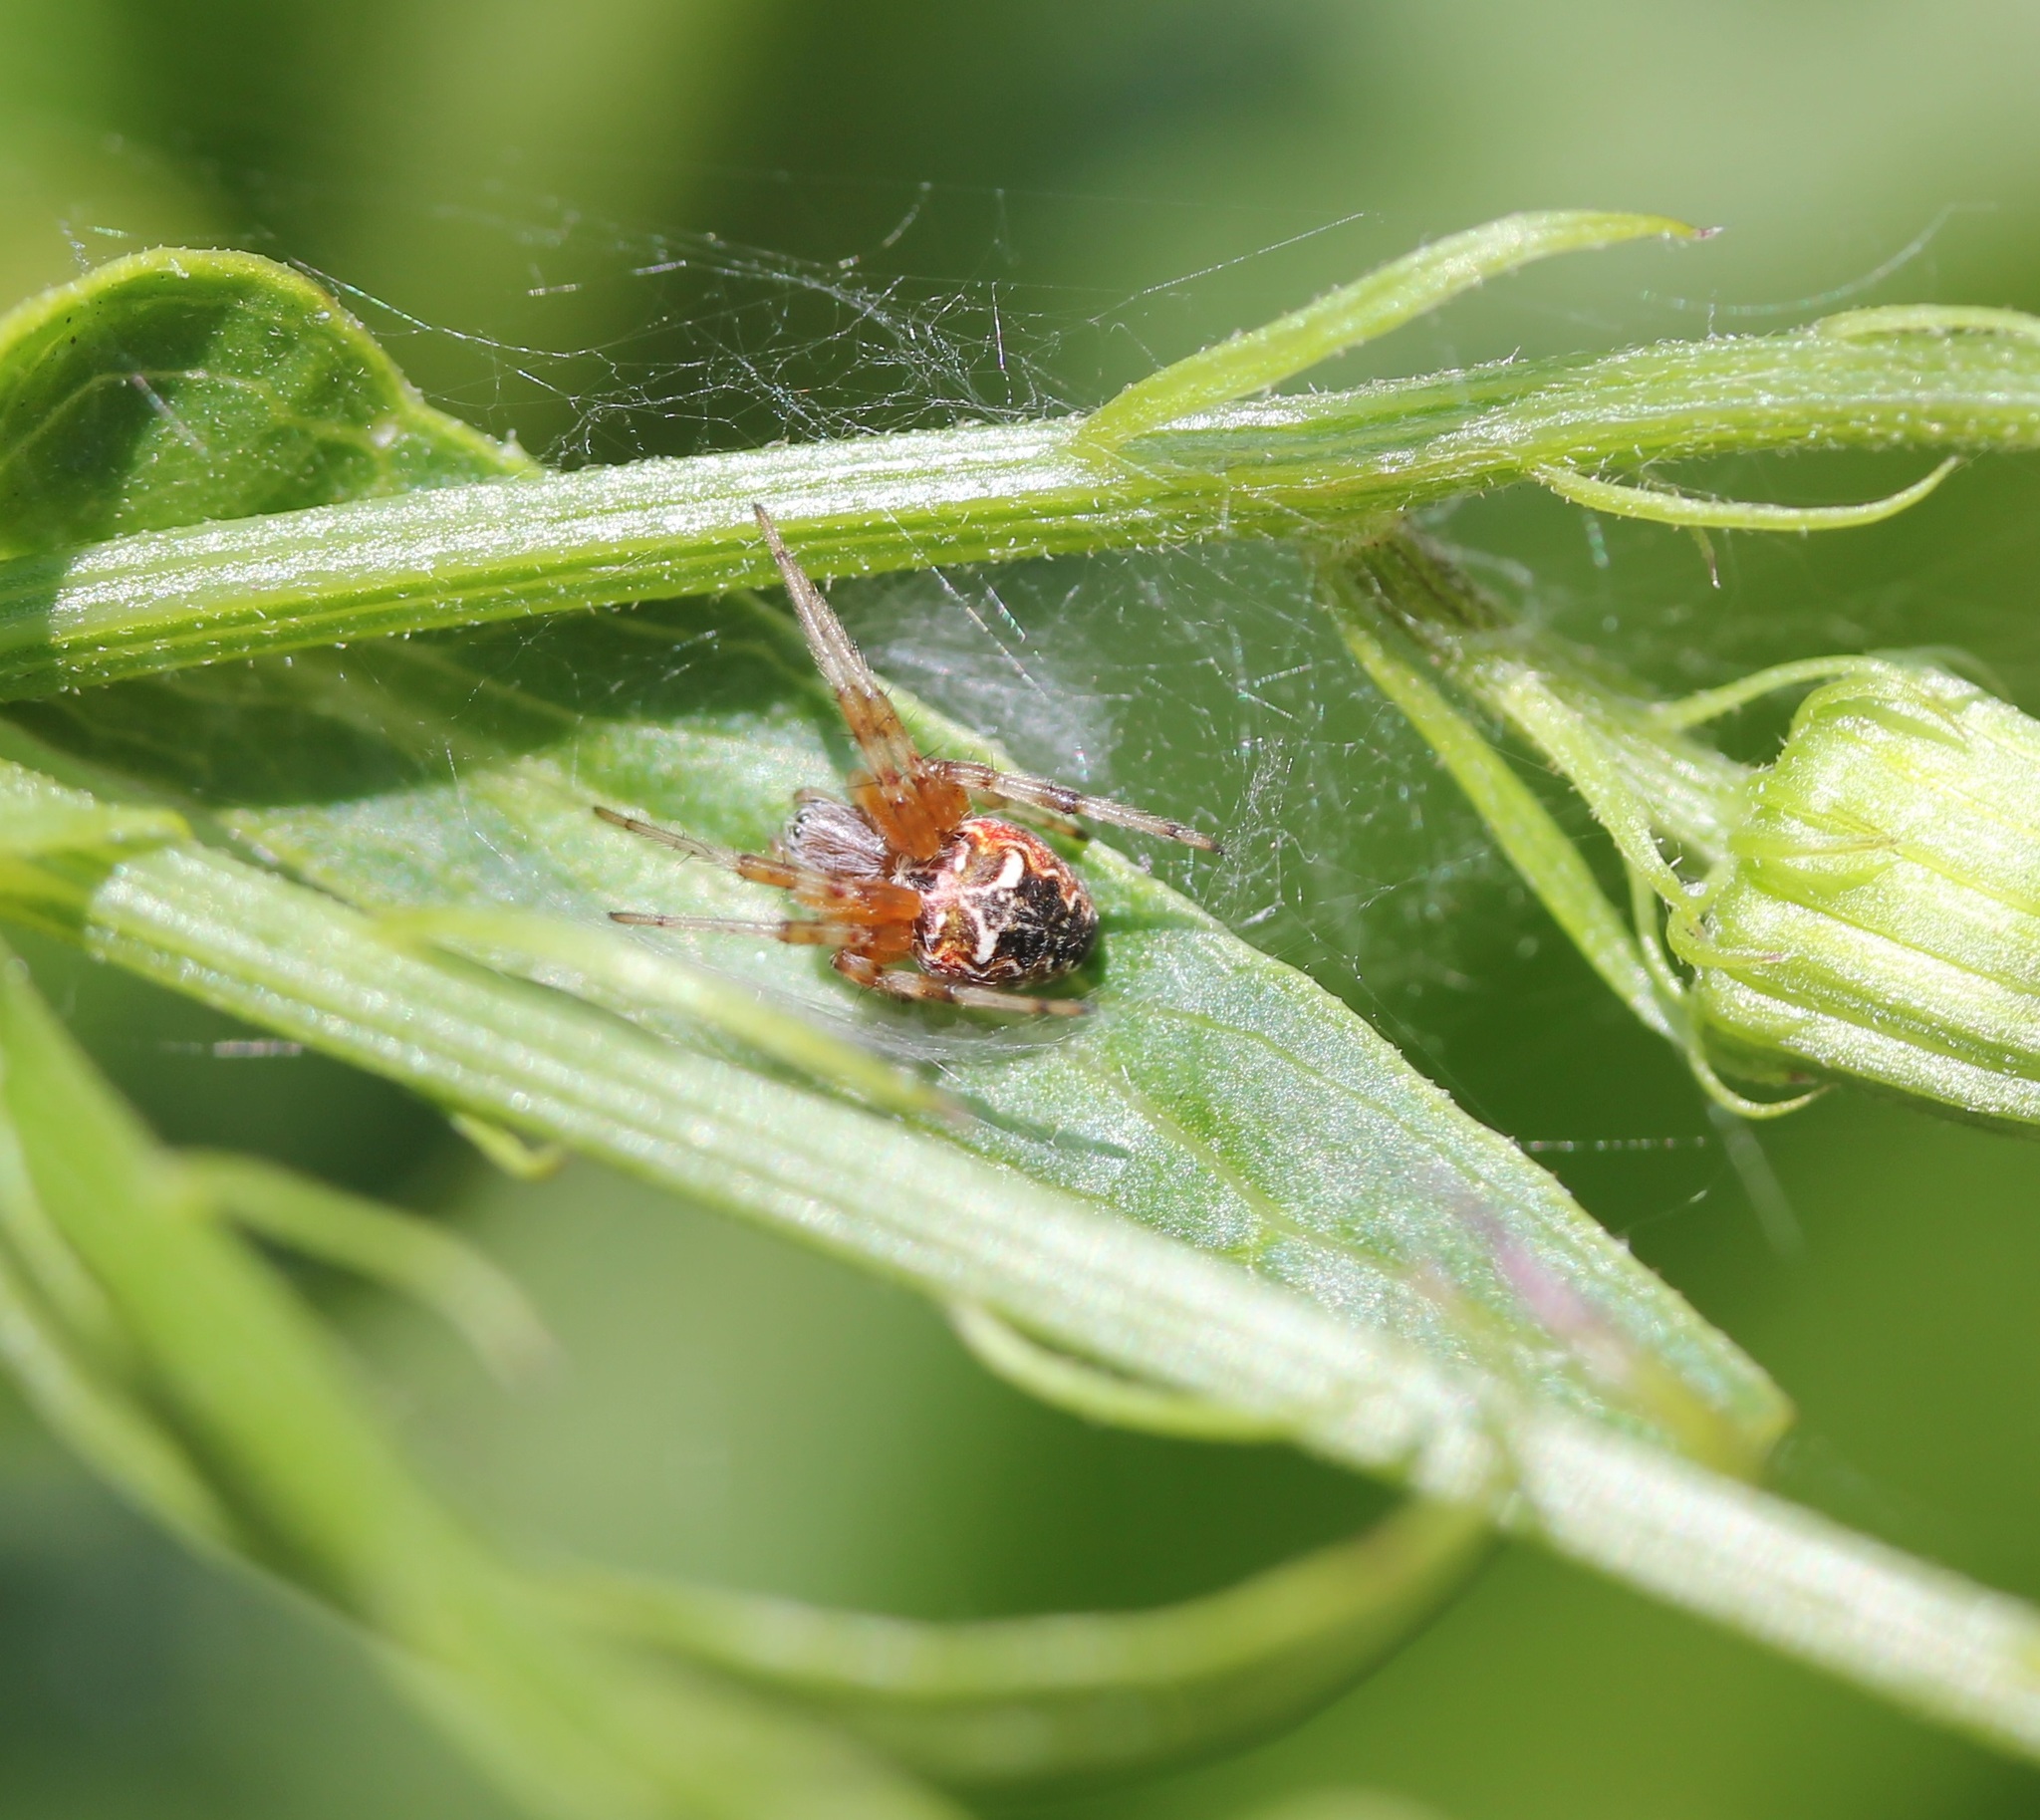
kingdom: Animalia
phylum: Arthropoda
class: Arachnida
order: Araneae
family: Araneidae
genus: Metepeira
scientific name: Metepeira labyrinthea
